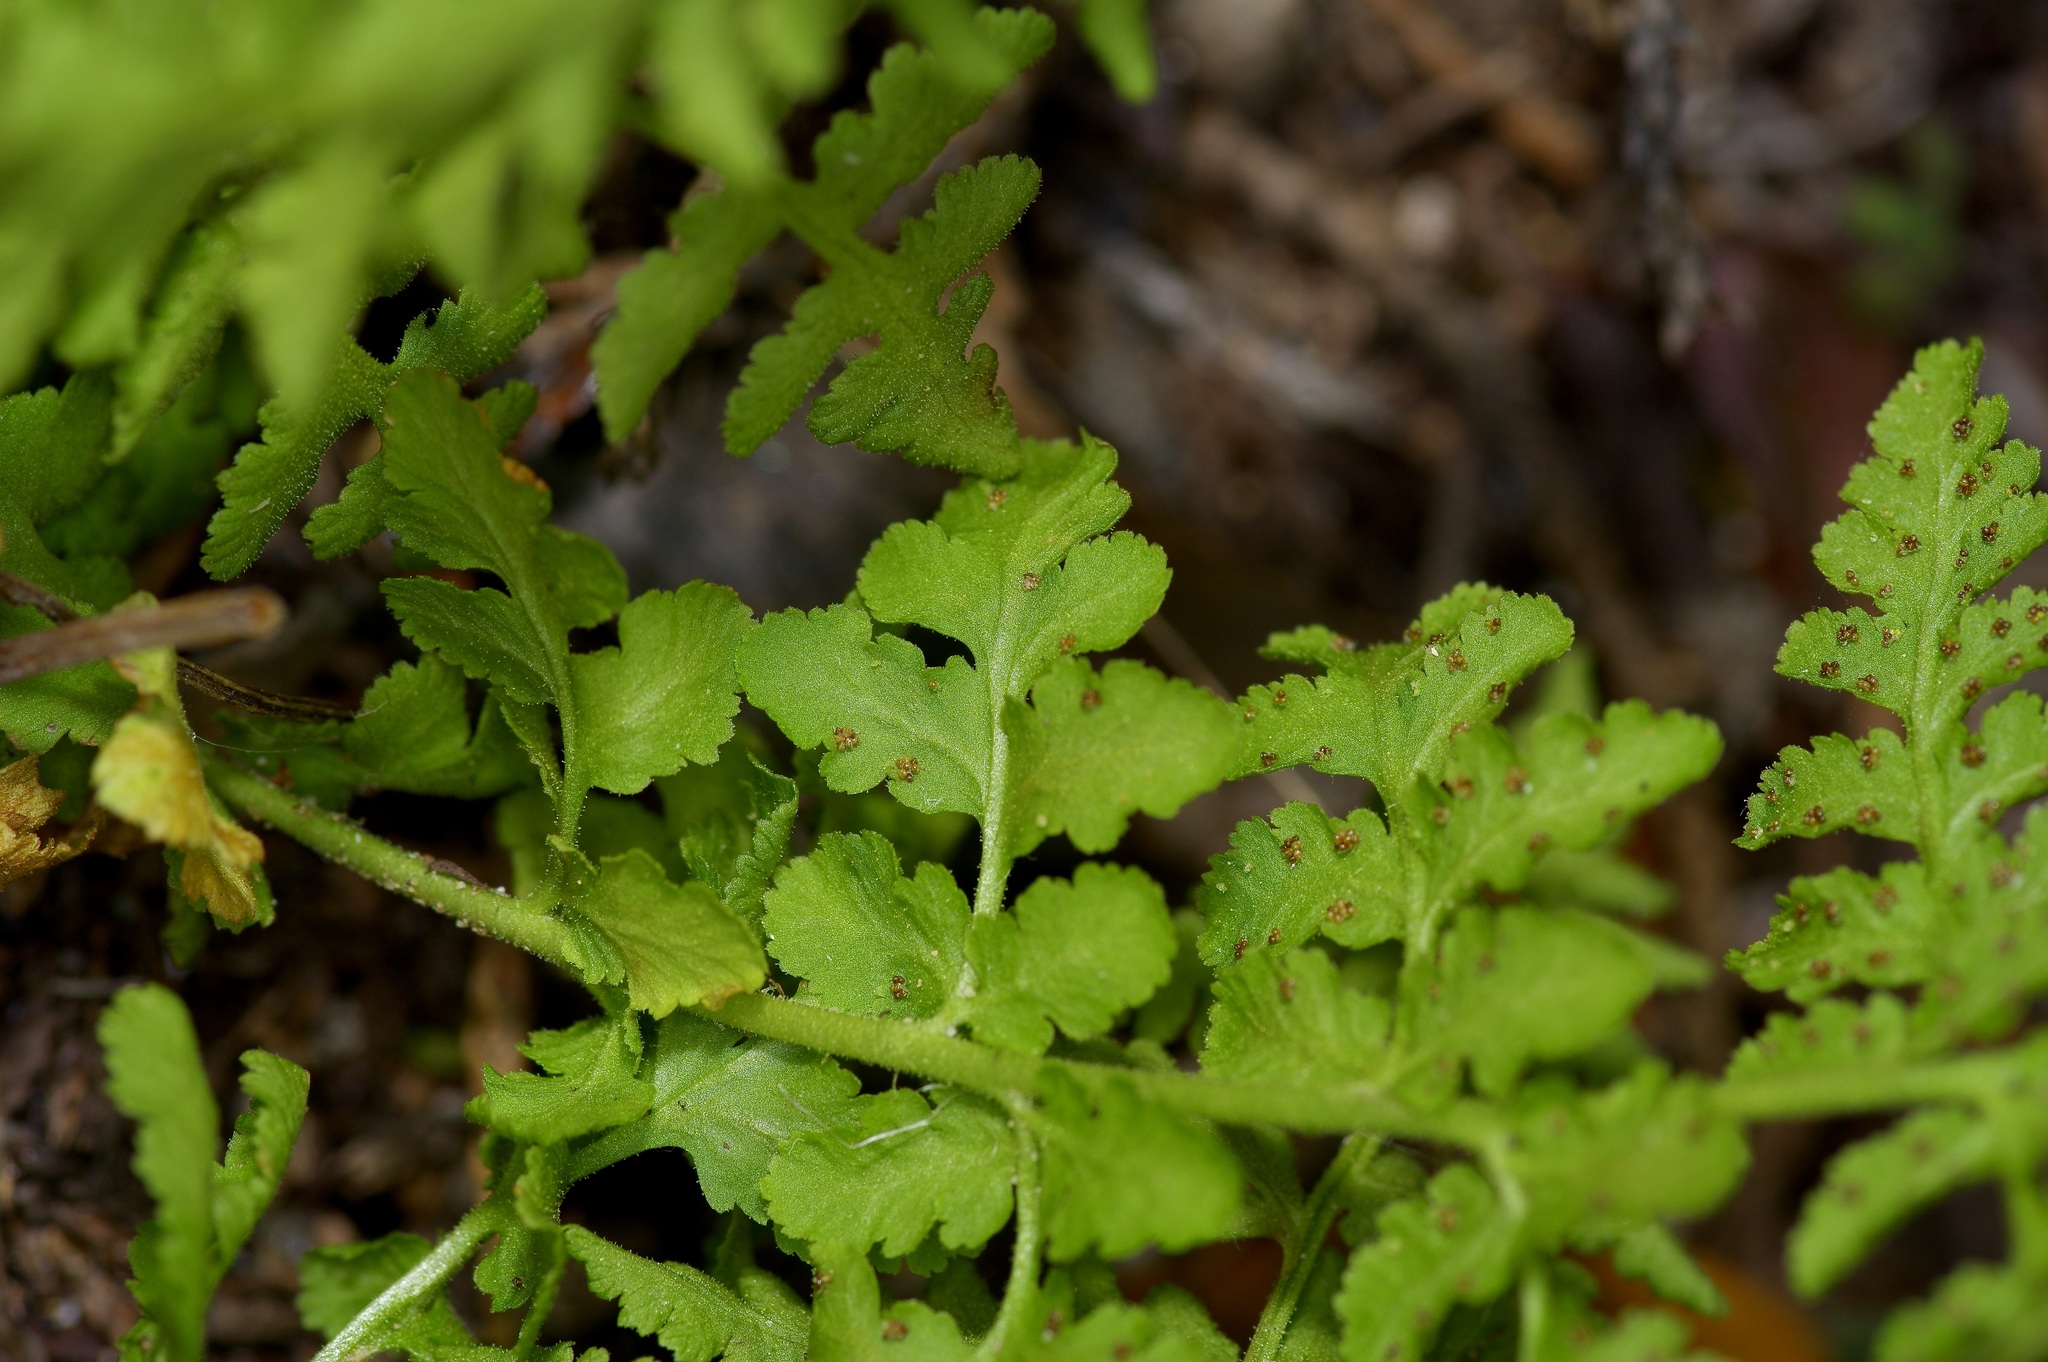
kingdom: Plantae
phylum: Tracheophyta
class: Polypodiopsida
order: Polypodiales
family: Woodsiaceae
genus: Physematium
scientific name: Physematium obtusum
